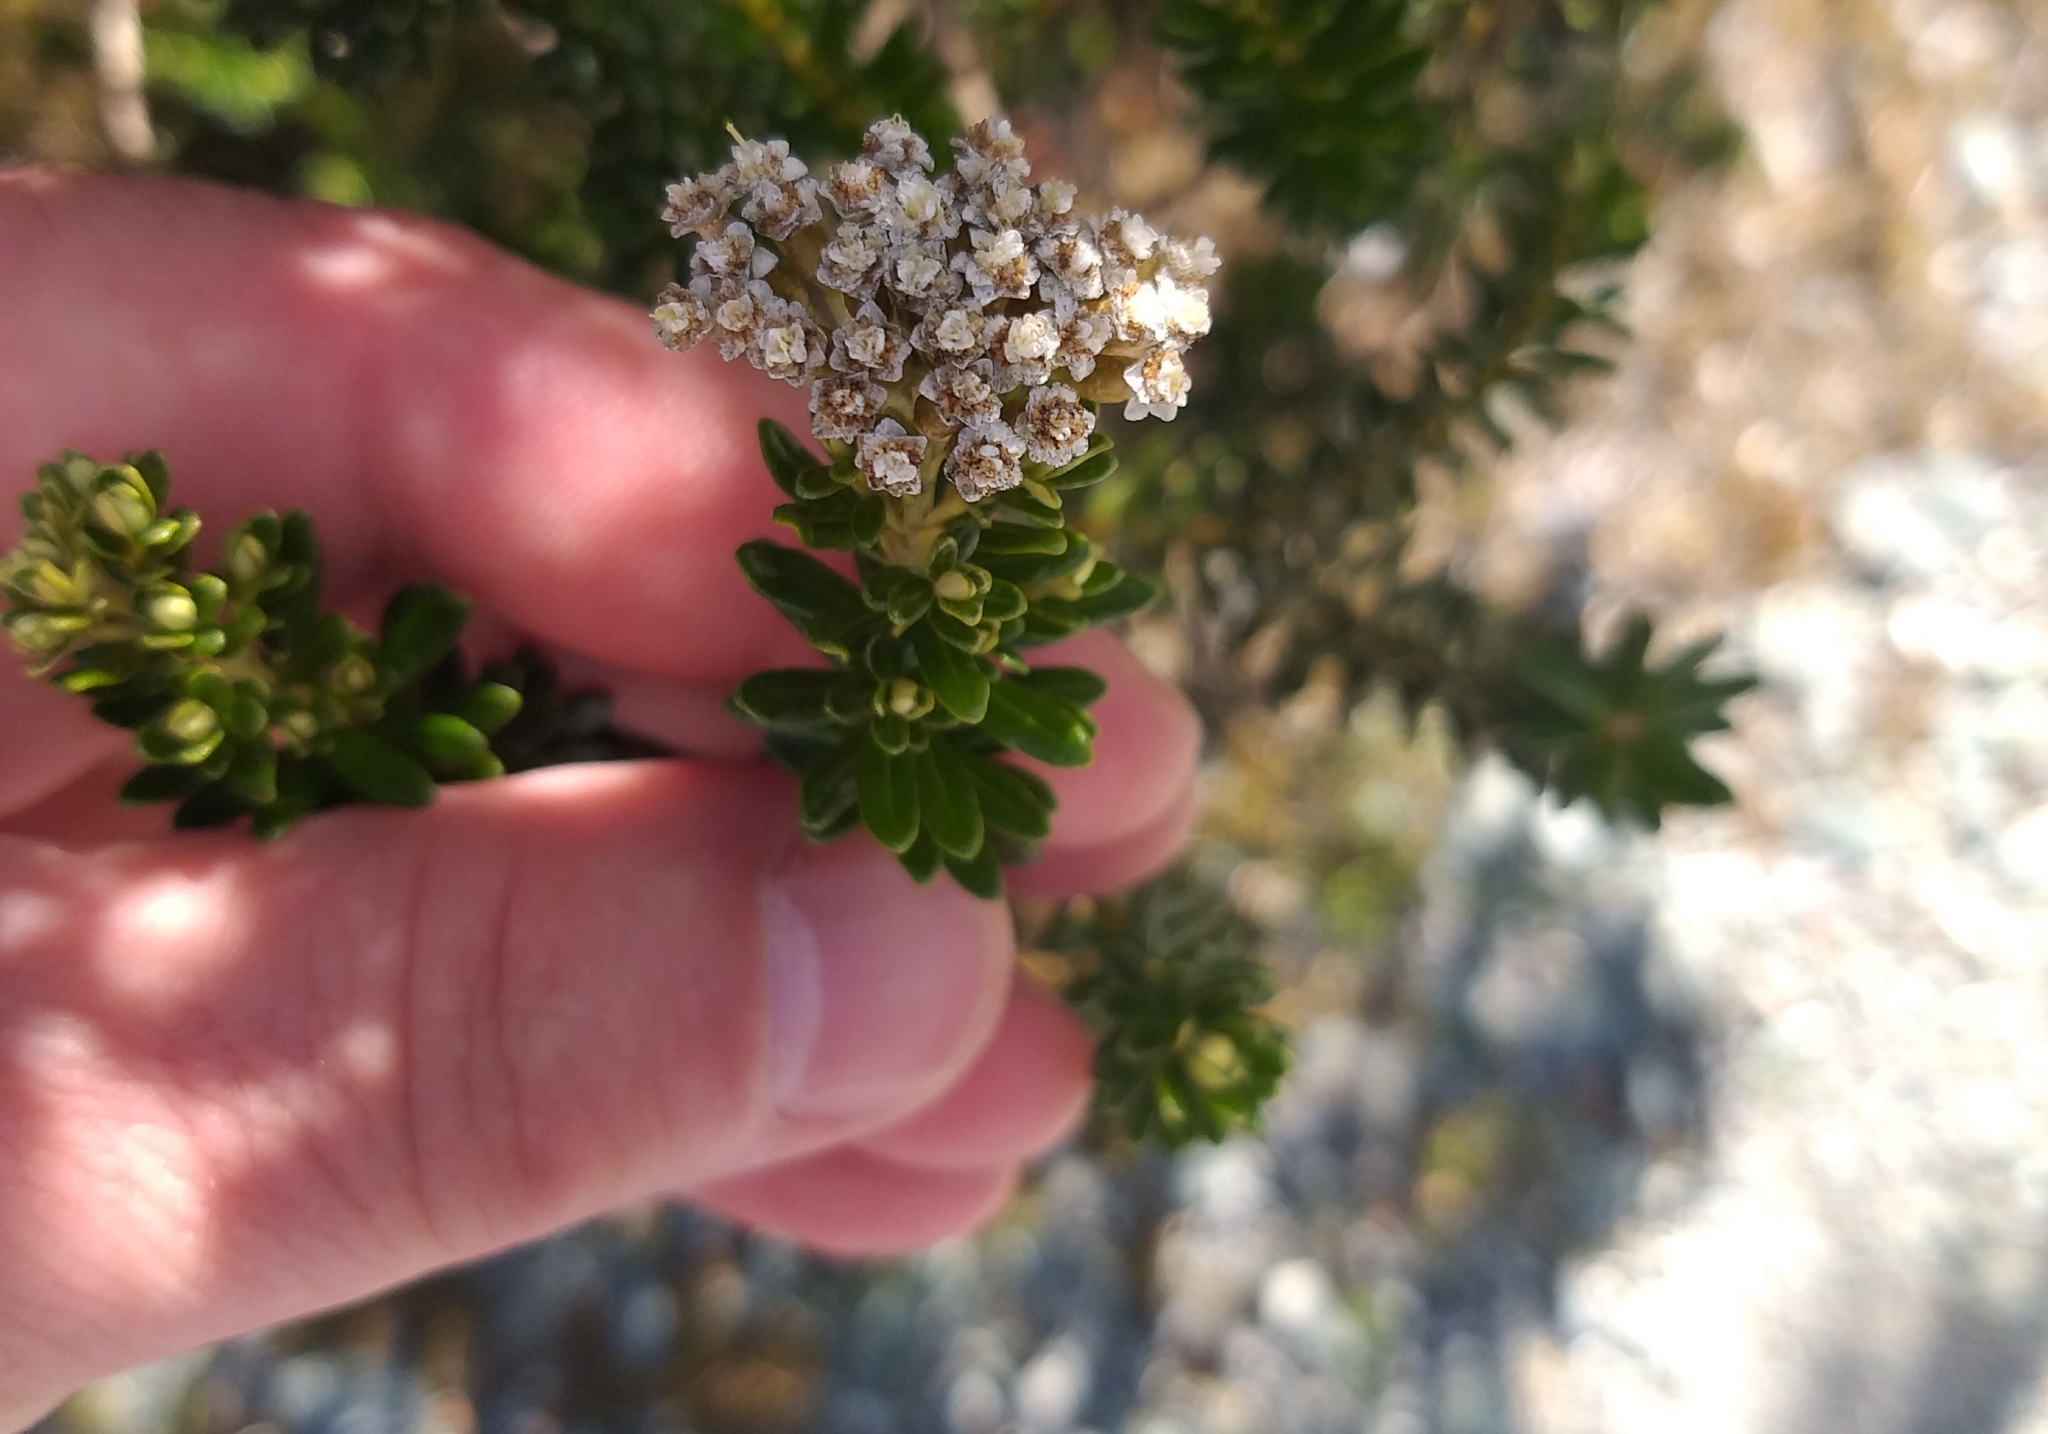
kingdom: Plantae
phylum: Tracheophyta
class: Magnoliopsida
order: Asterales
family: Asteraceae
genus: Ozothamnus
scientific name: Ozothamnus leptophyllus
